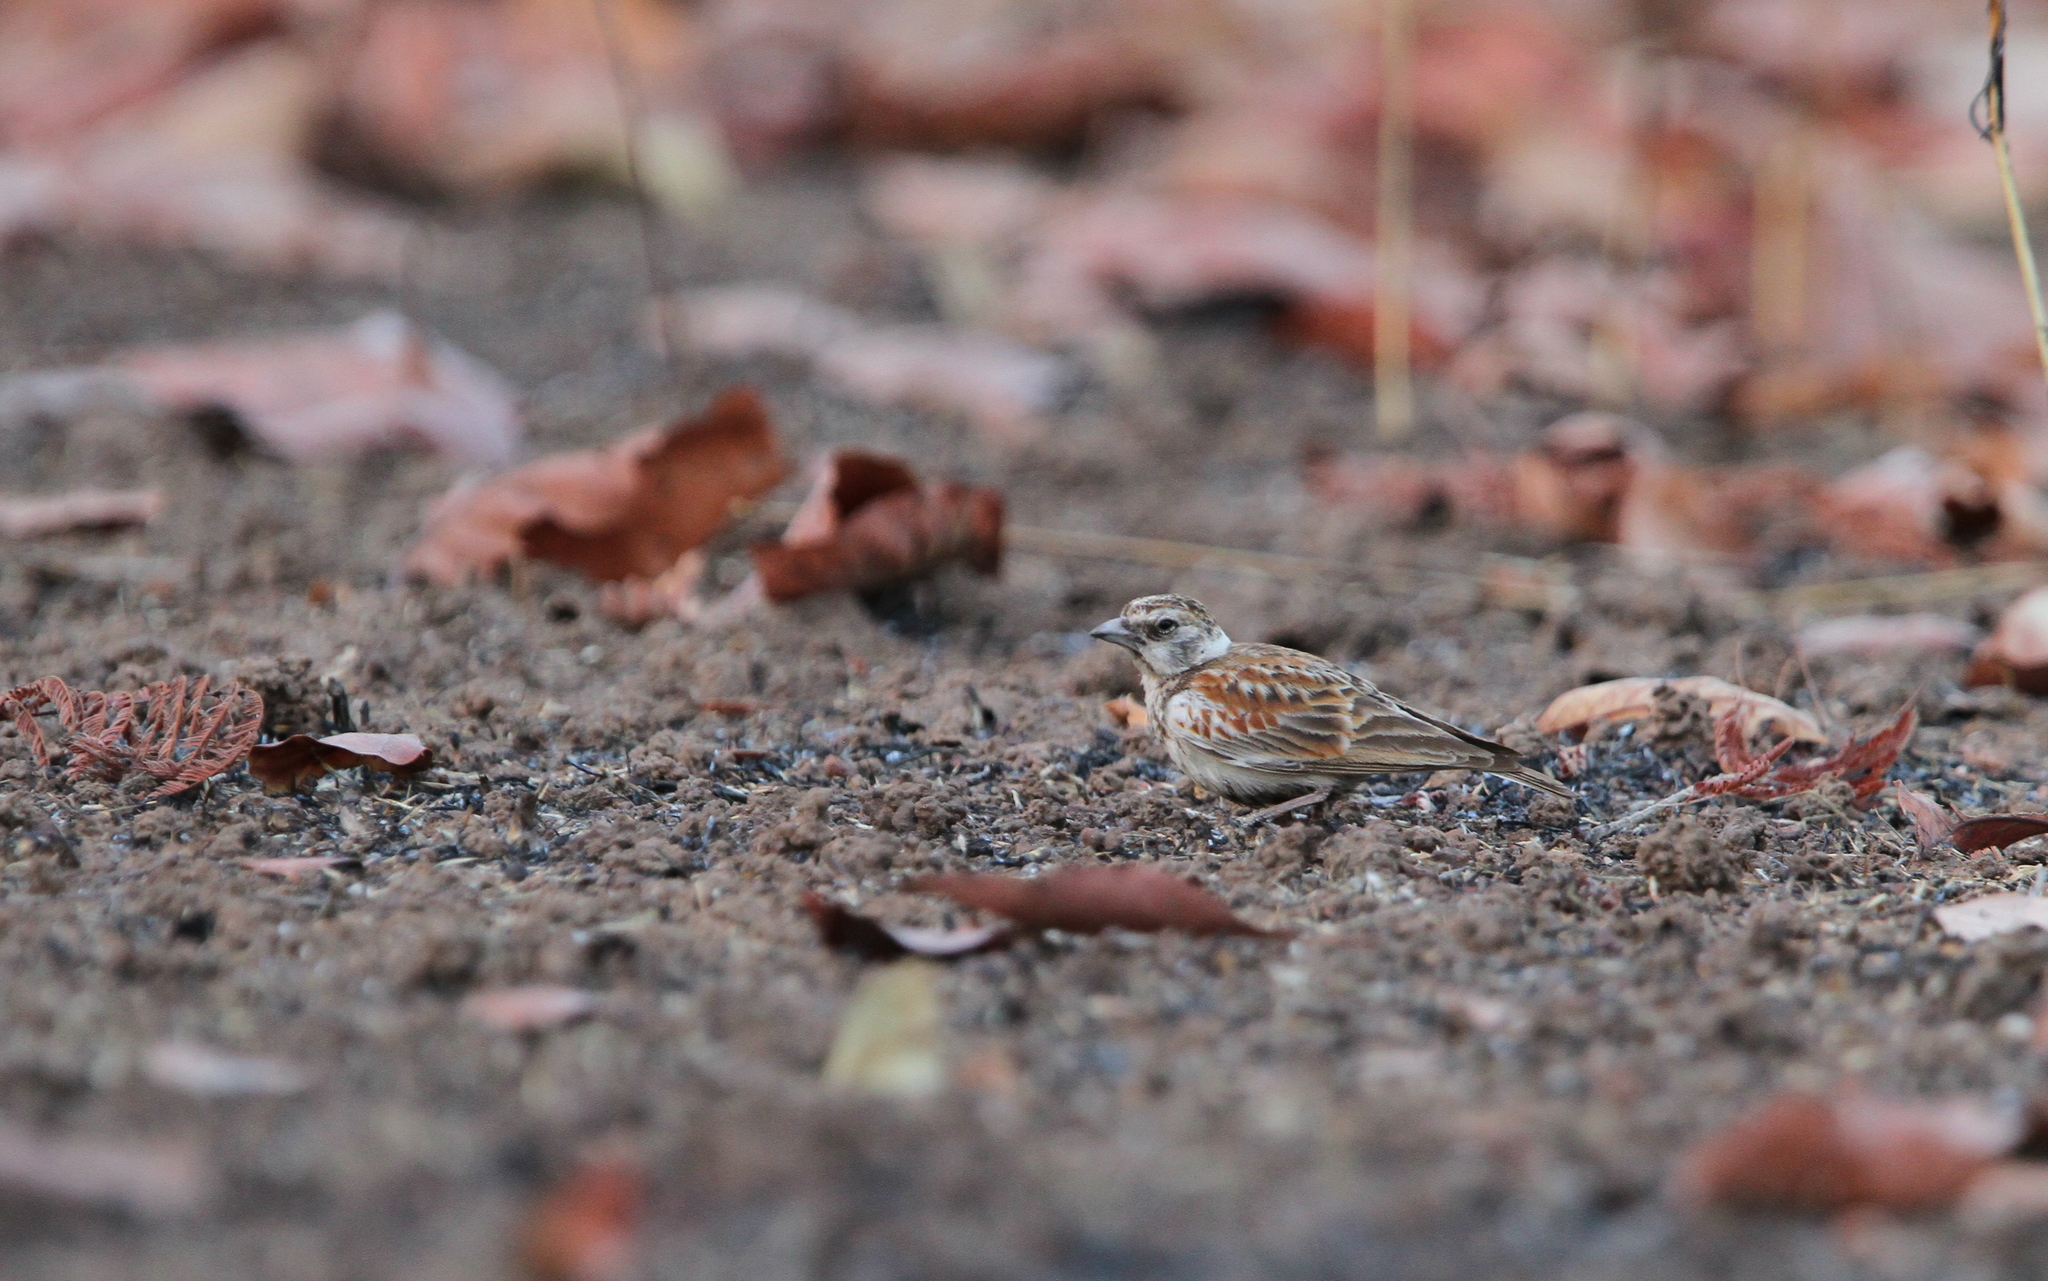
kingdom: Animalia
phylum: Chordata
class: Aves
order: Passeriformes
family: Alaudidae
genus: Eremopterix
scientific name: Eremopterix leucotis
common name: Chestnut-backed sparrow-lark
